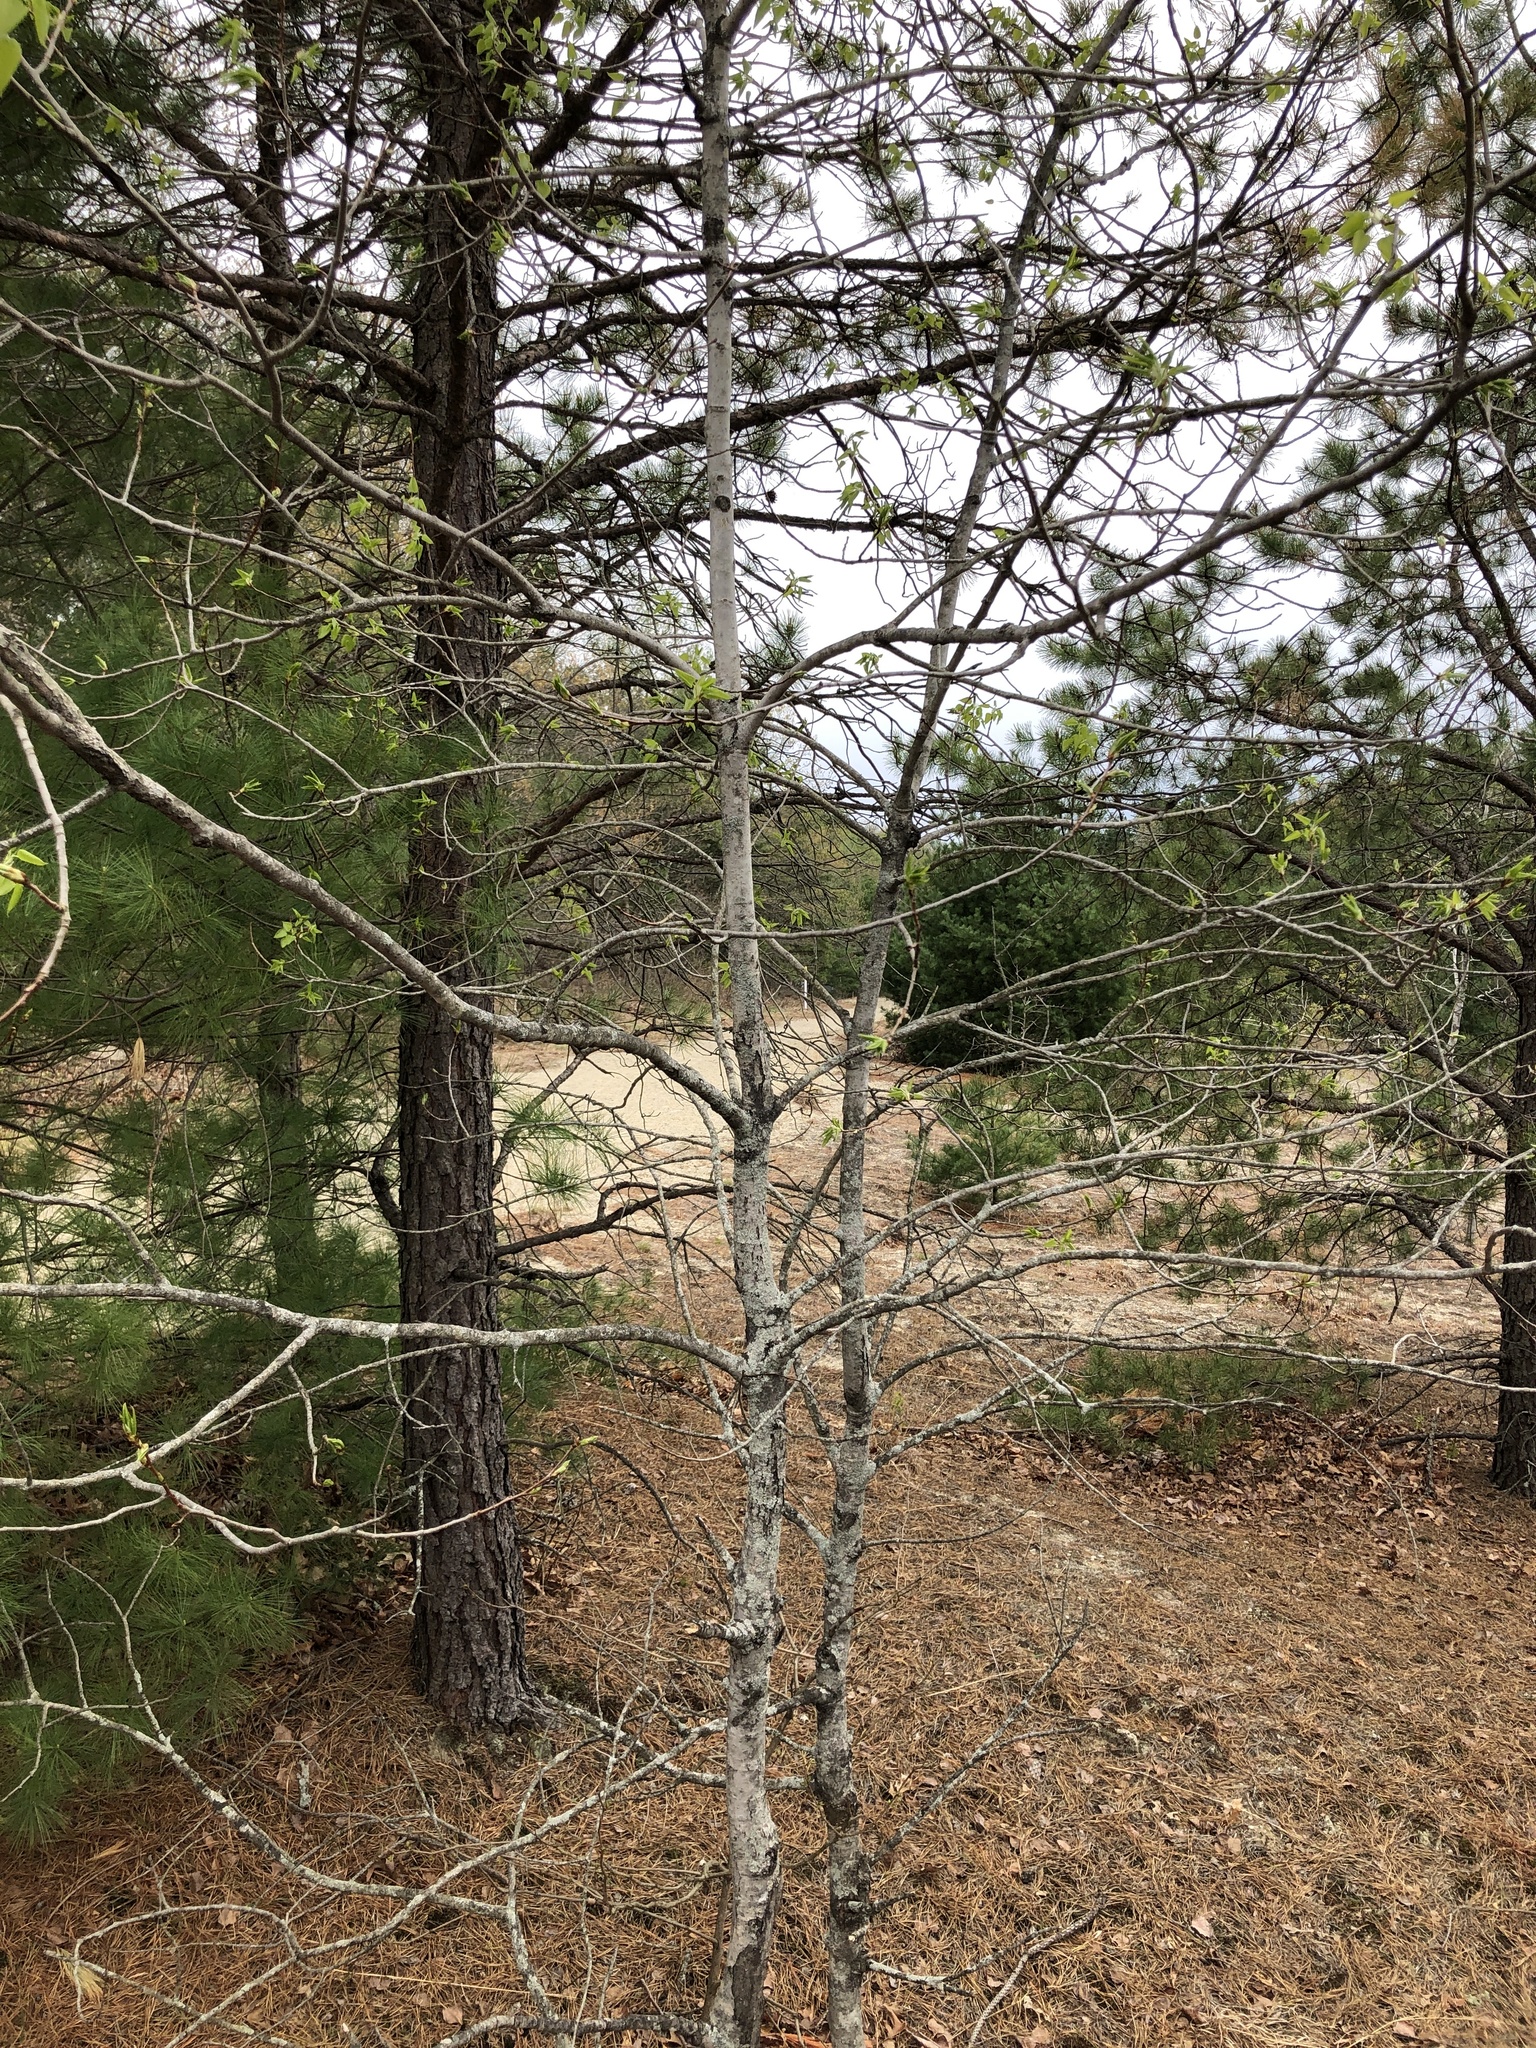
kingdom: Plantae
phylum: Tracheophyta
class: Magnoliopsida
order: Malpighiales
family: Salicaceae
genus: Populus
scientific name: Populus tremuloides
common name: Quaking aspen
